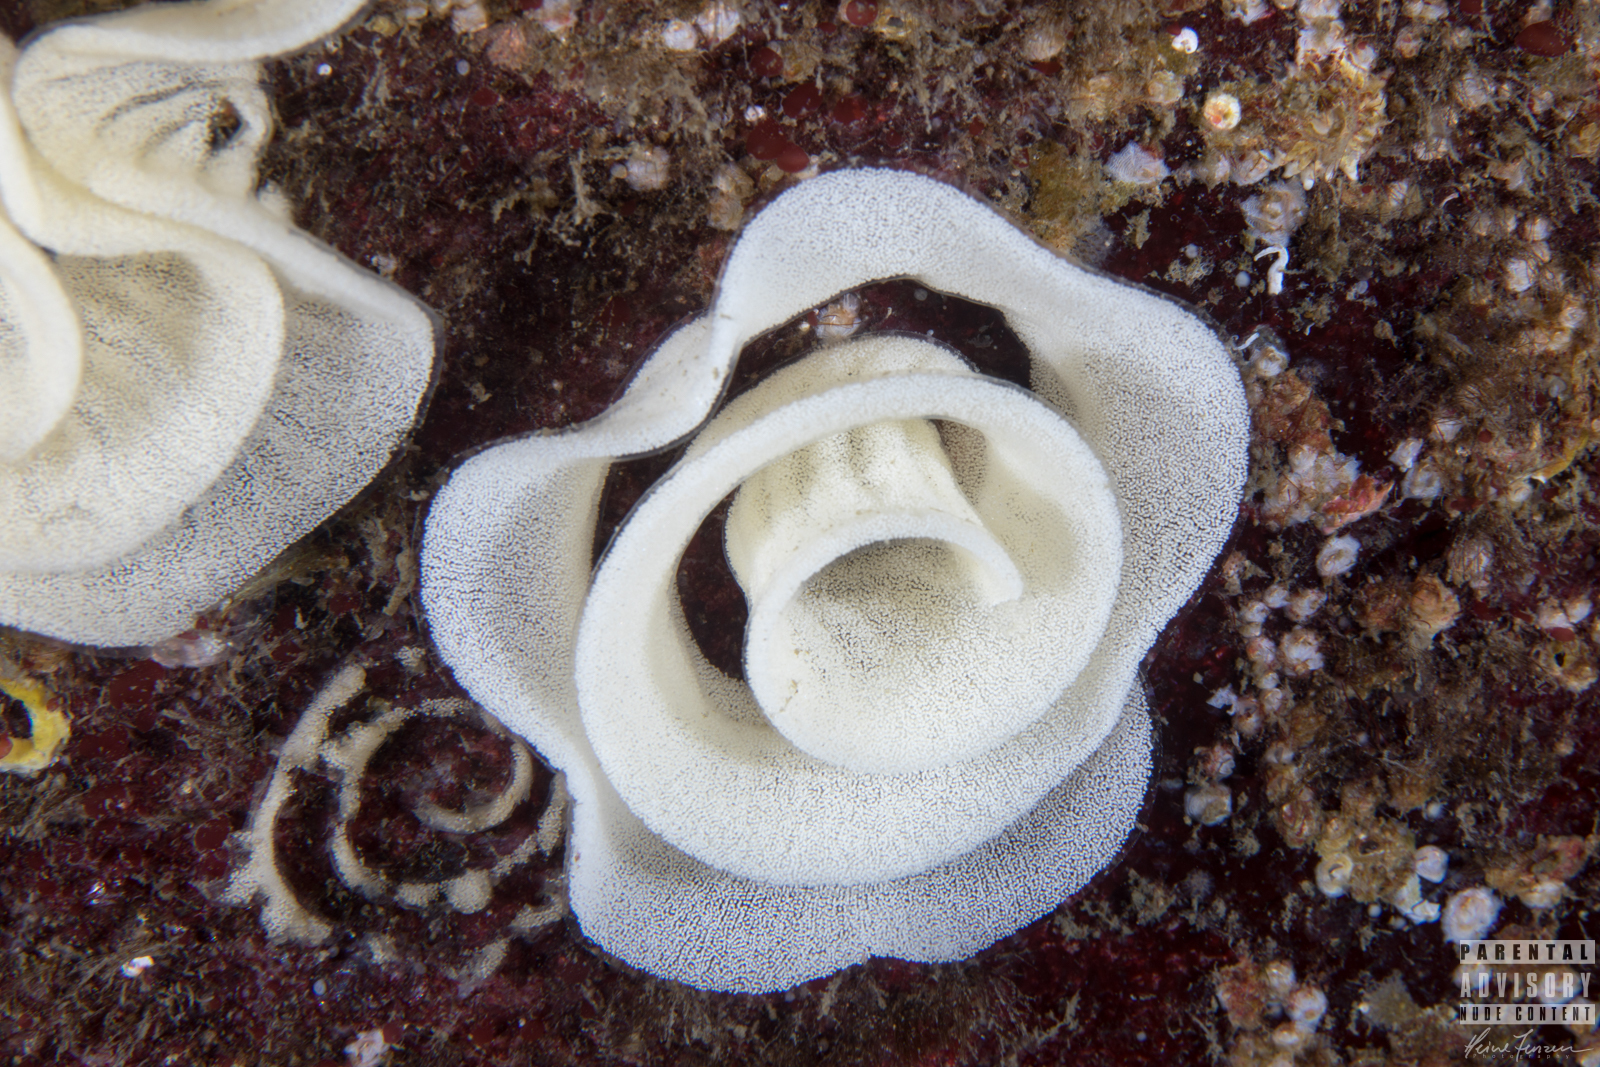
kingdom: Animalia
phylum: Mollusca
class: Gastropoda
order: Nudibranchia
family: Dorididae
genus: Doris
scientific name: Doris pseudoargus
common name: Sea lemon
